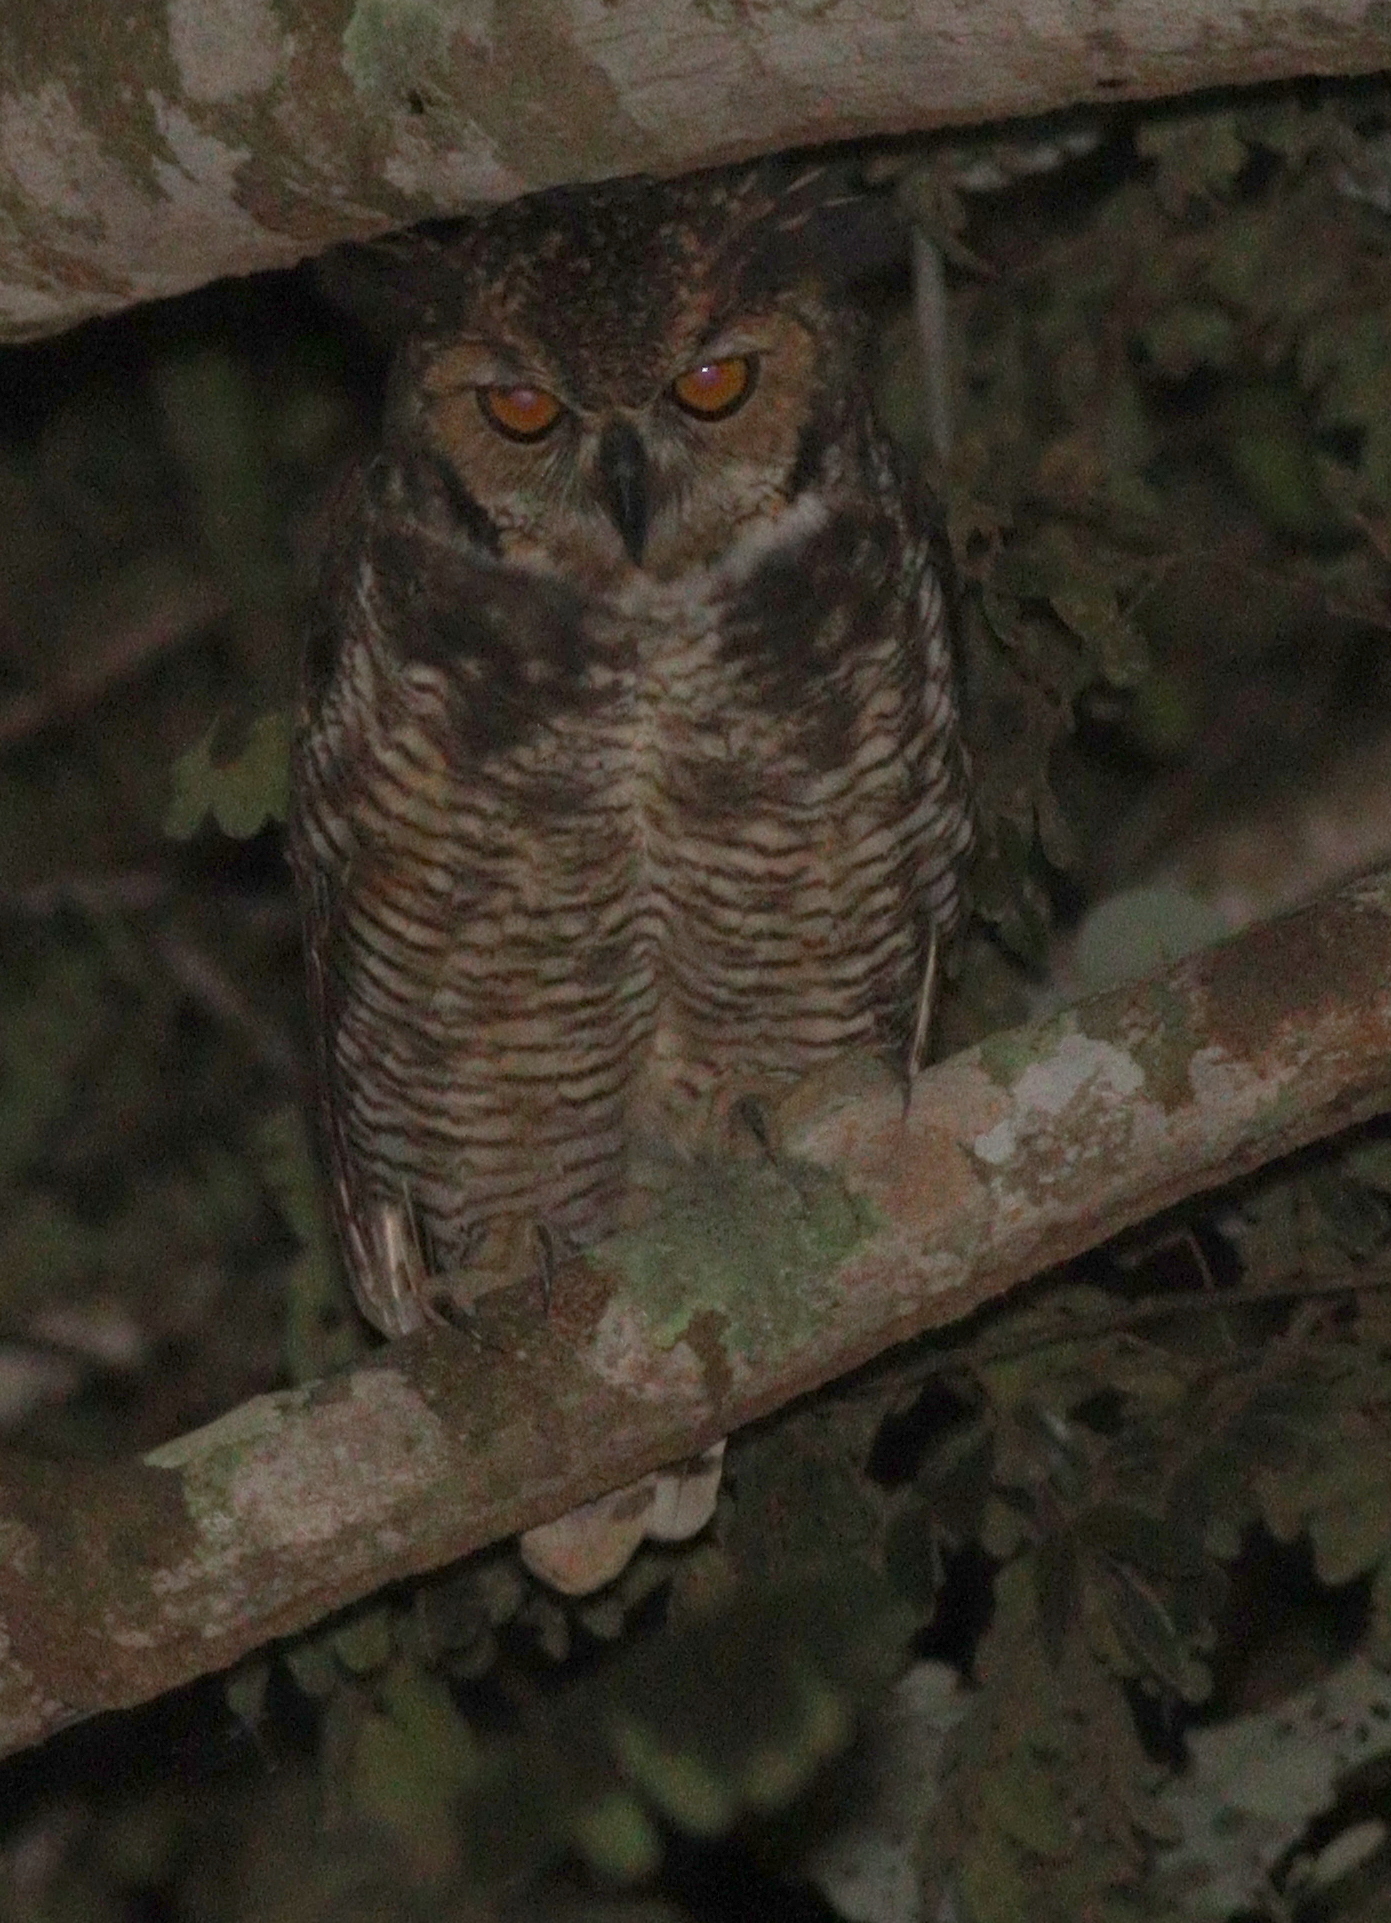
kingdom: Animalia
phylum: Chordata
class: Aves
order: Strigiformes
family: Strigidae
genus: Bubo
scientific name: Bubo virginianus
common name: Great horned owl
